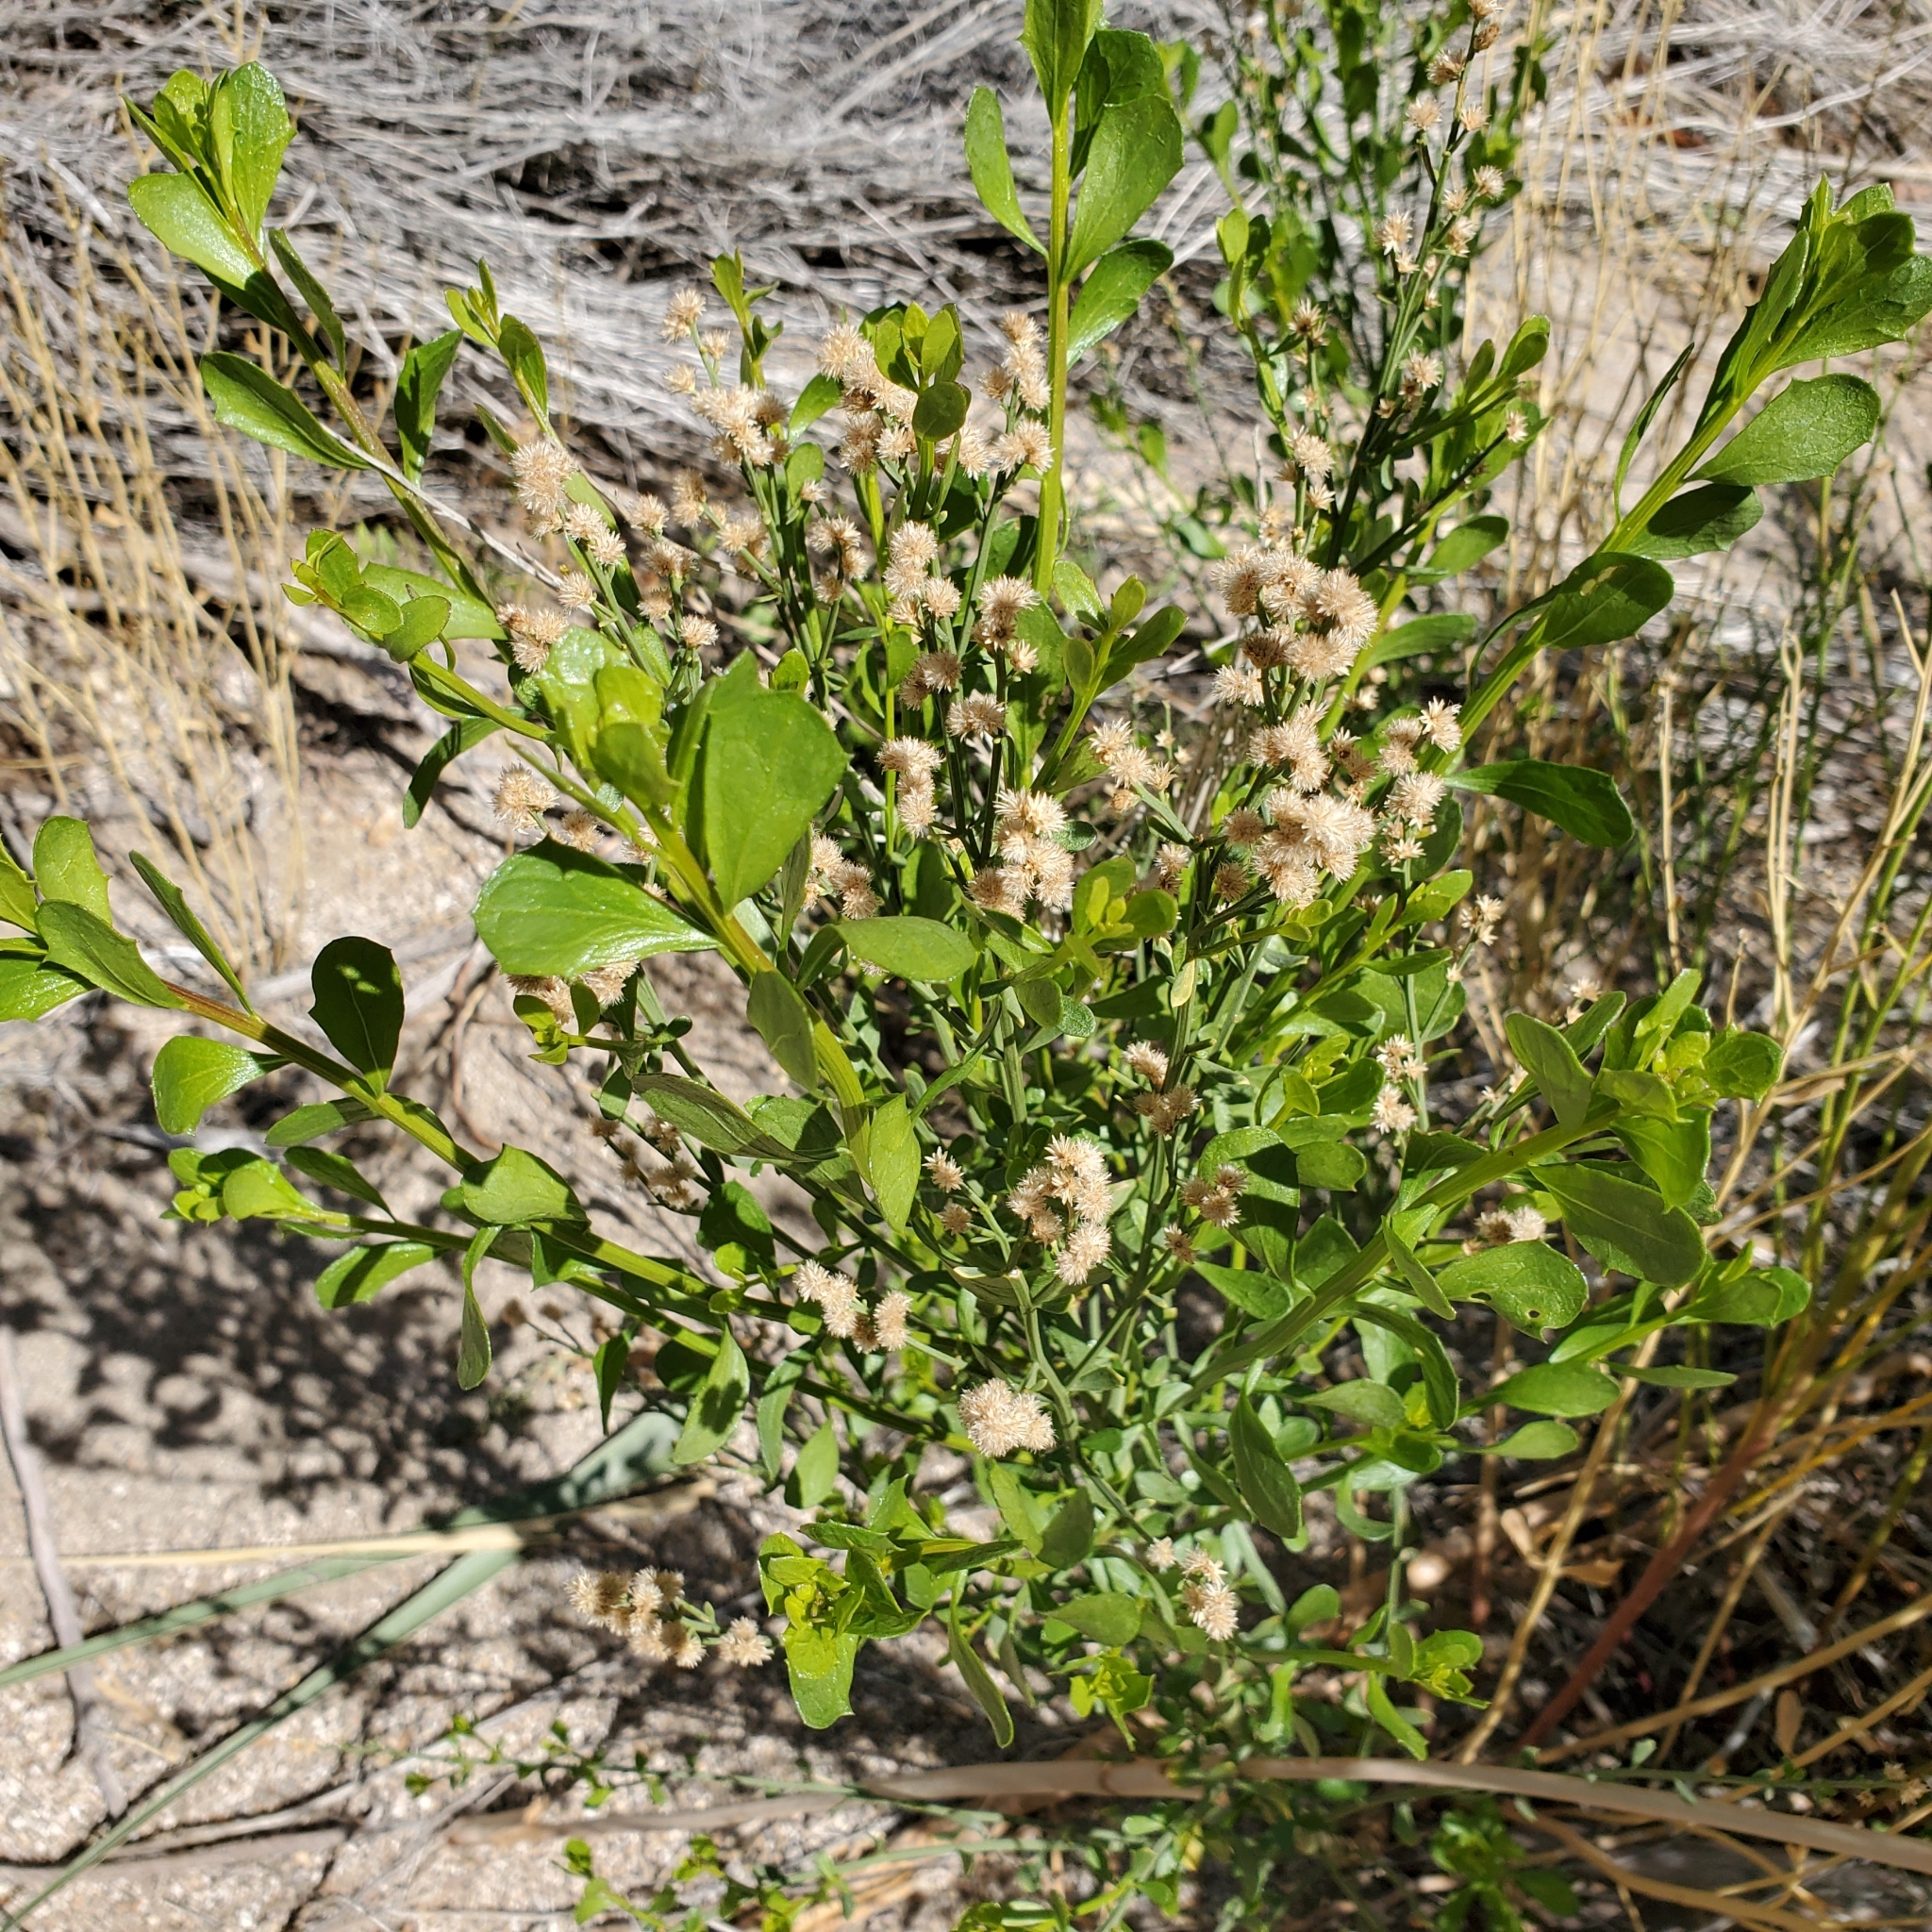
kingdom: Plantae
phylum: Tracheophyta
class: Magnoliopsida
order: Asterales
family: Asteraceae
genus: Baccharis
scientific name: Baccharis sergiloides
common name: Desert baccharis
